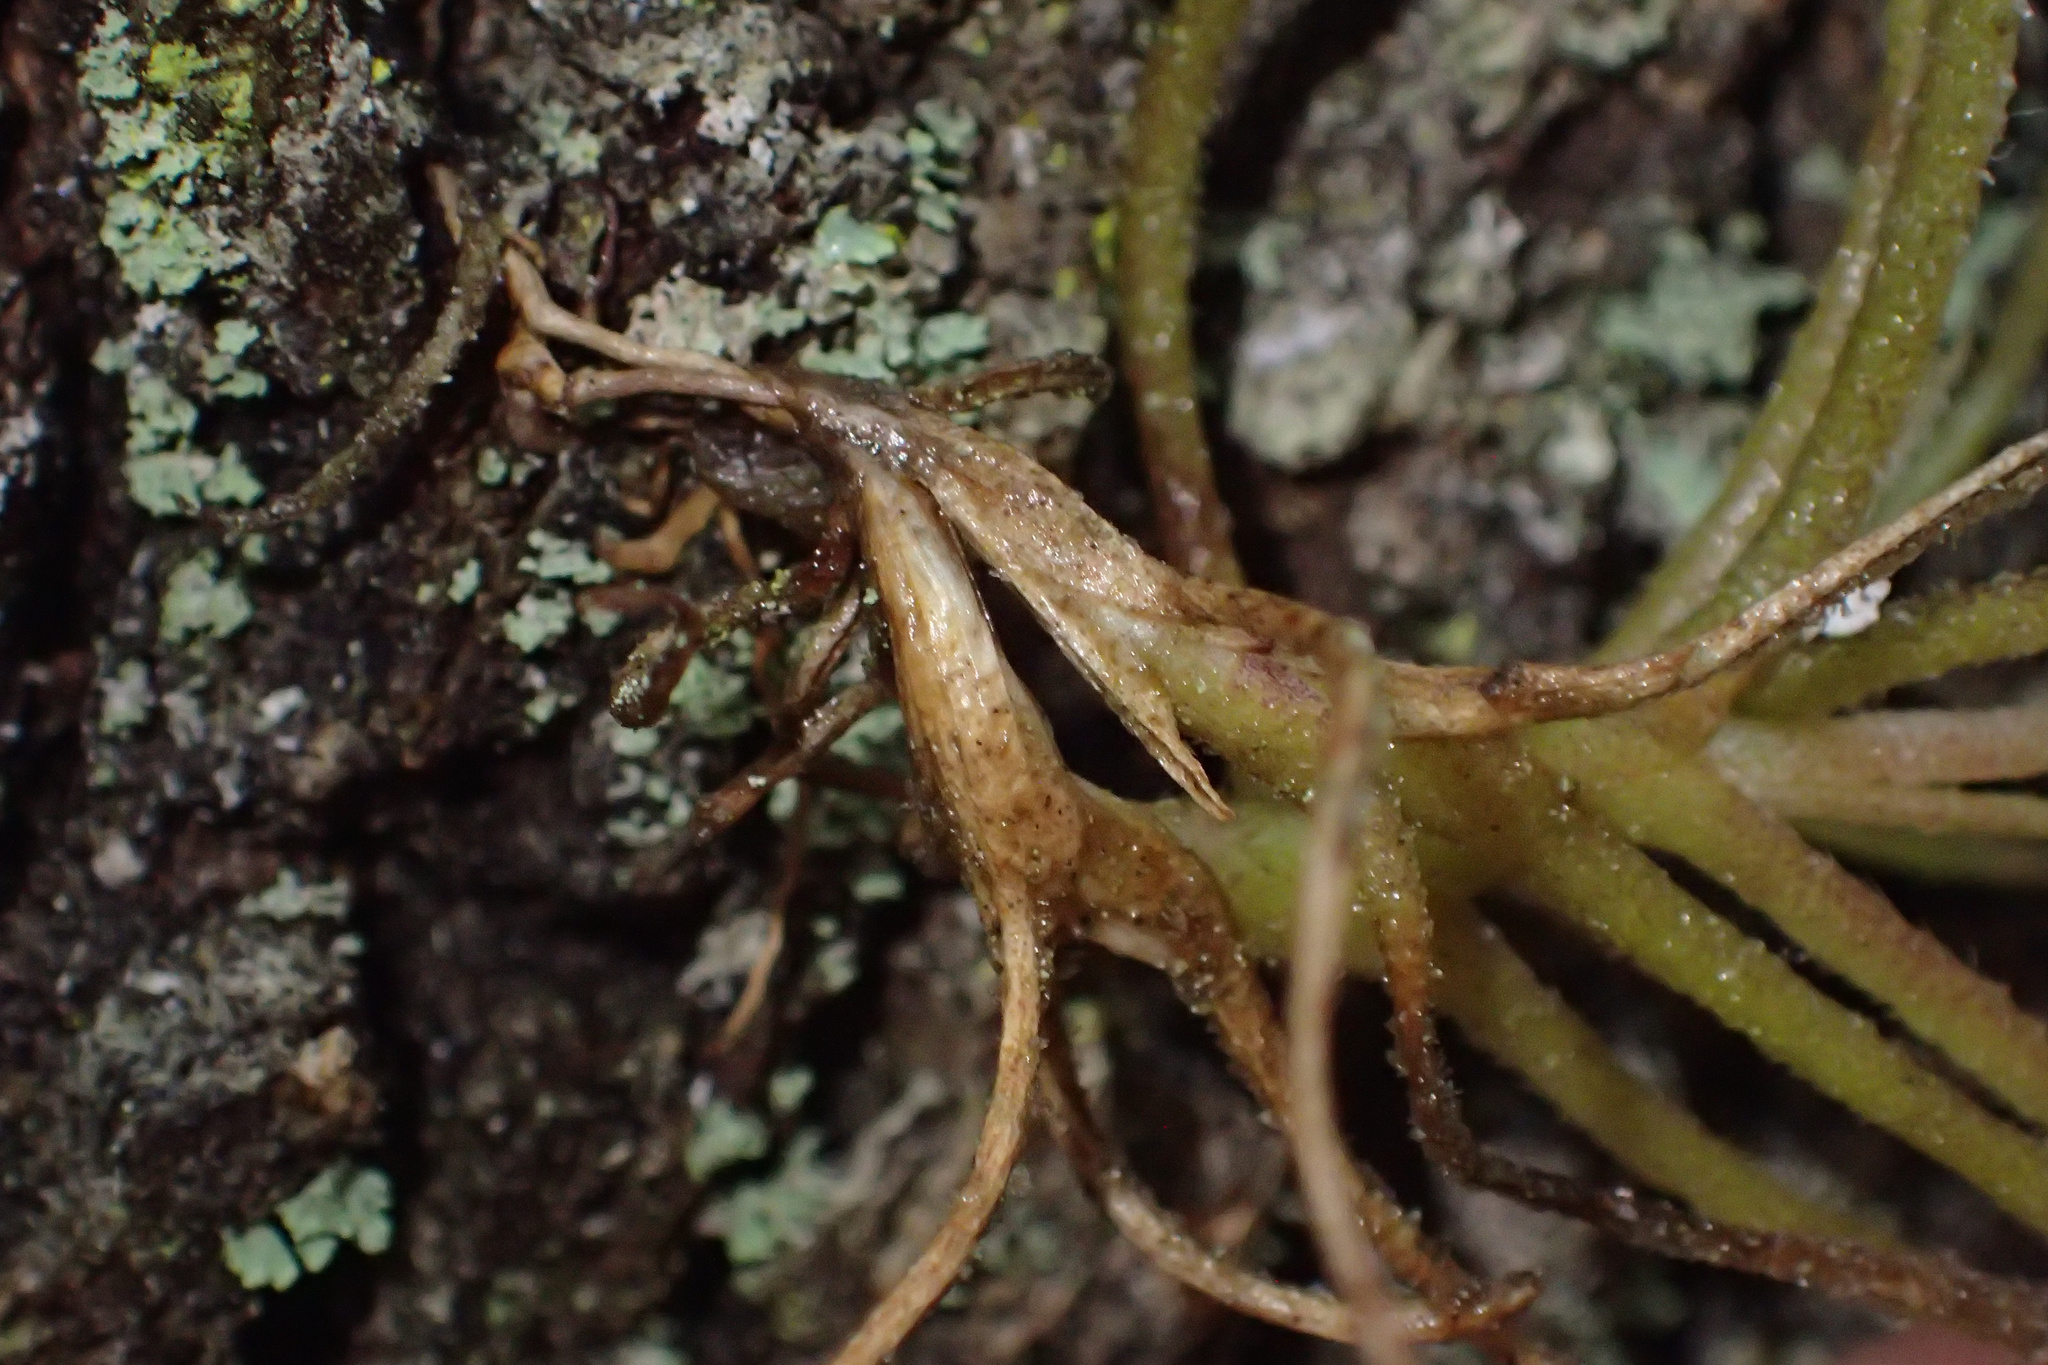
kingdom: Plantae
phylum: Tracheophyta
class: Liliopsida
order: Poales
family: Bromeliaceae
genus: Tillandsia
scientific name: Tillandsia recurvata
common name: Small ballmoss
